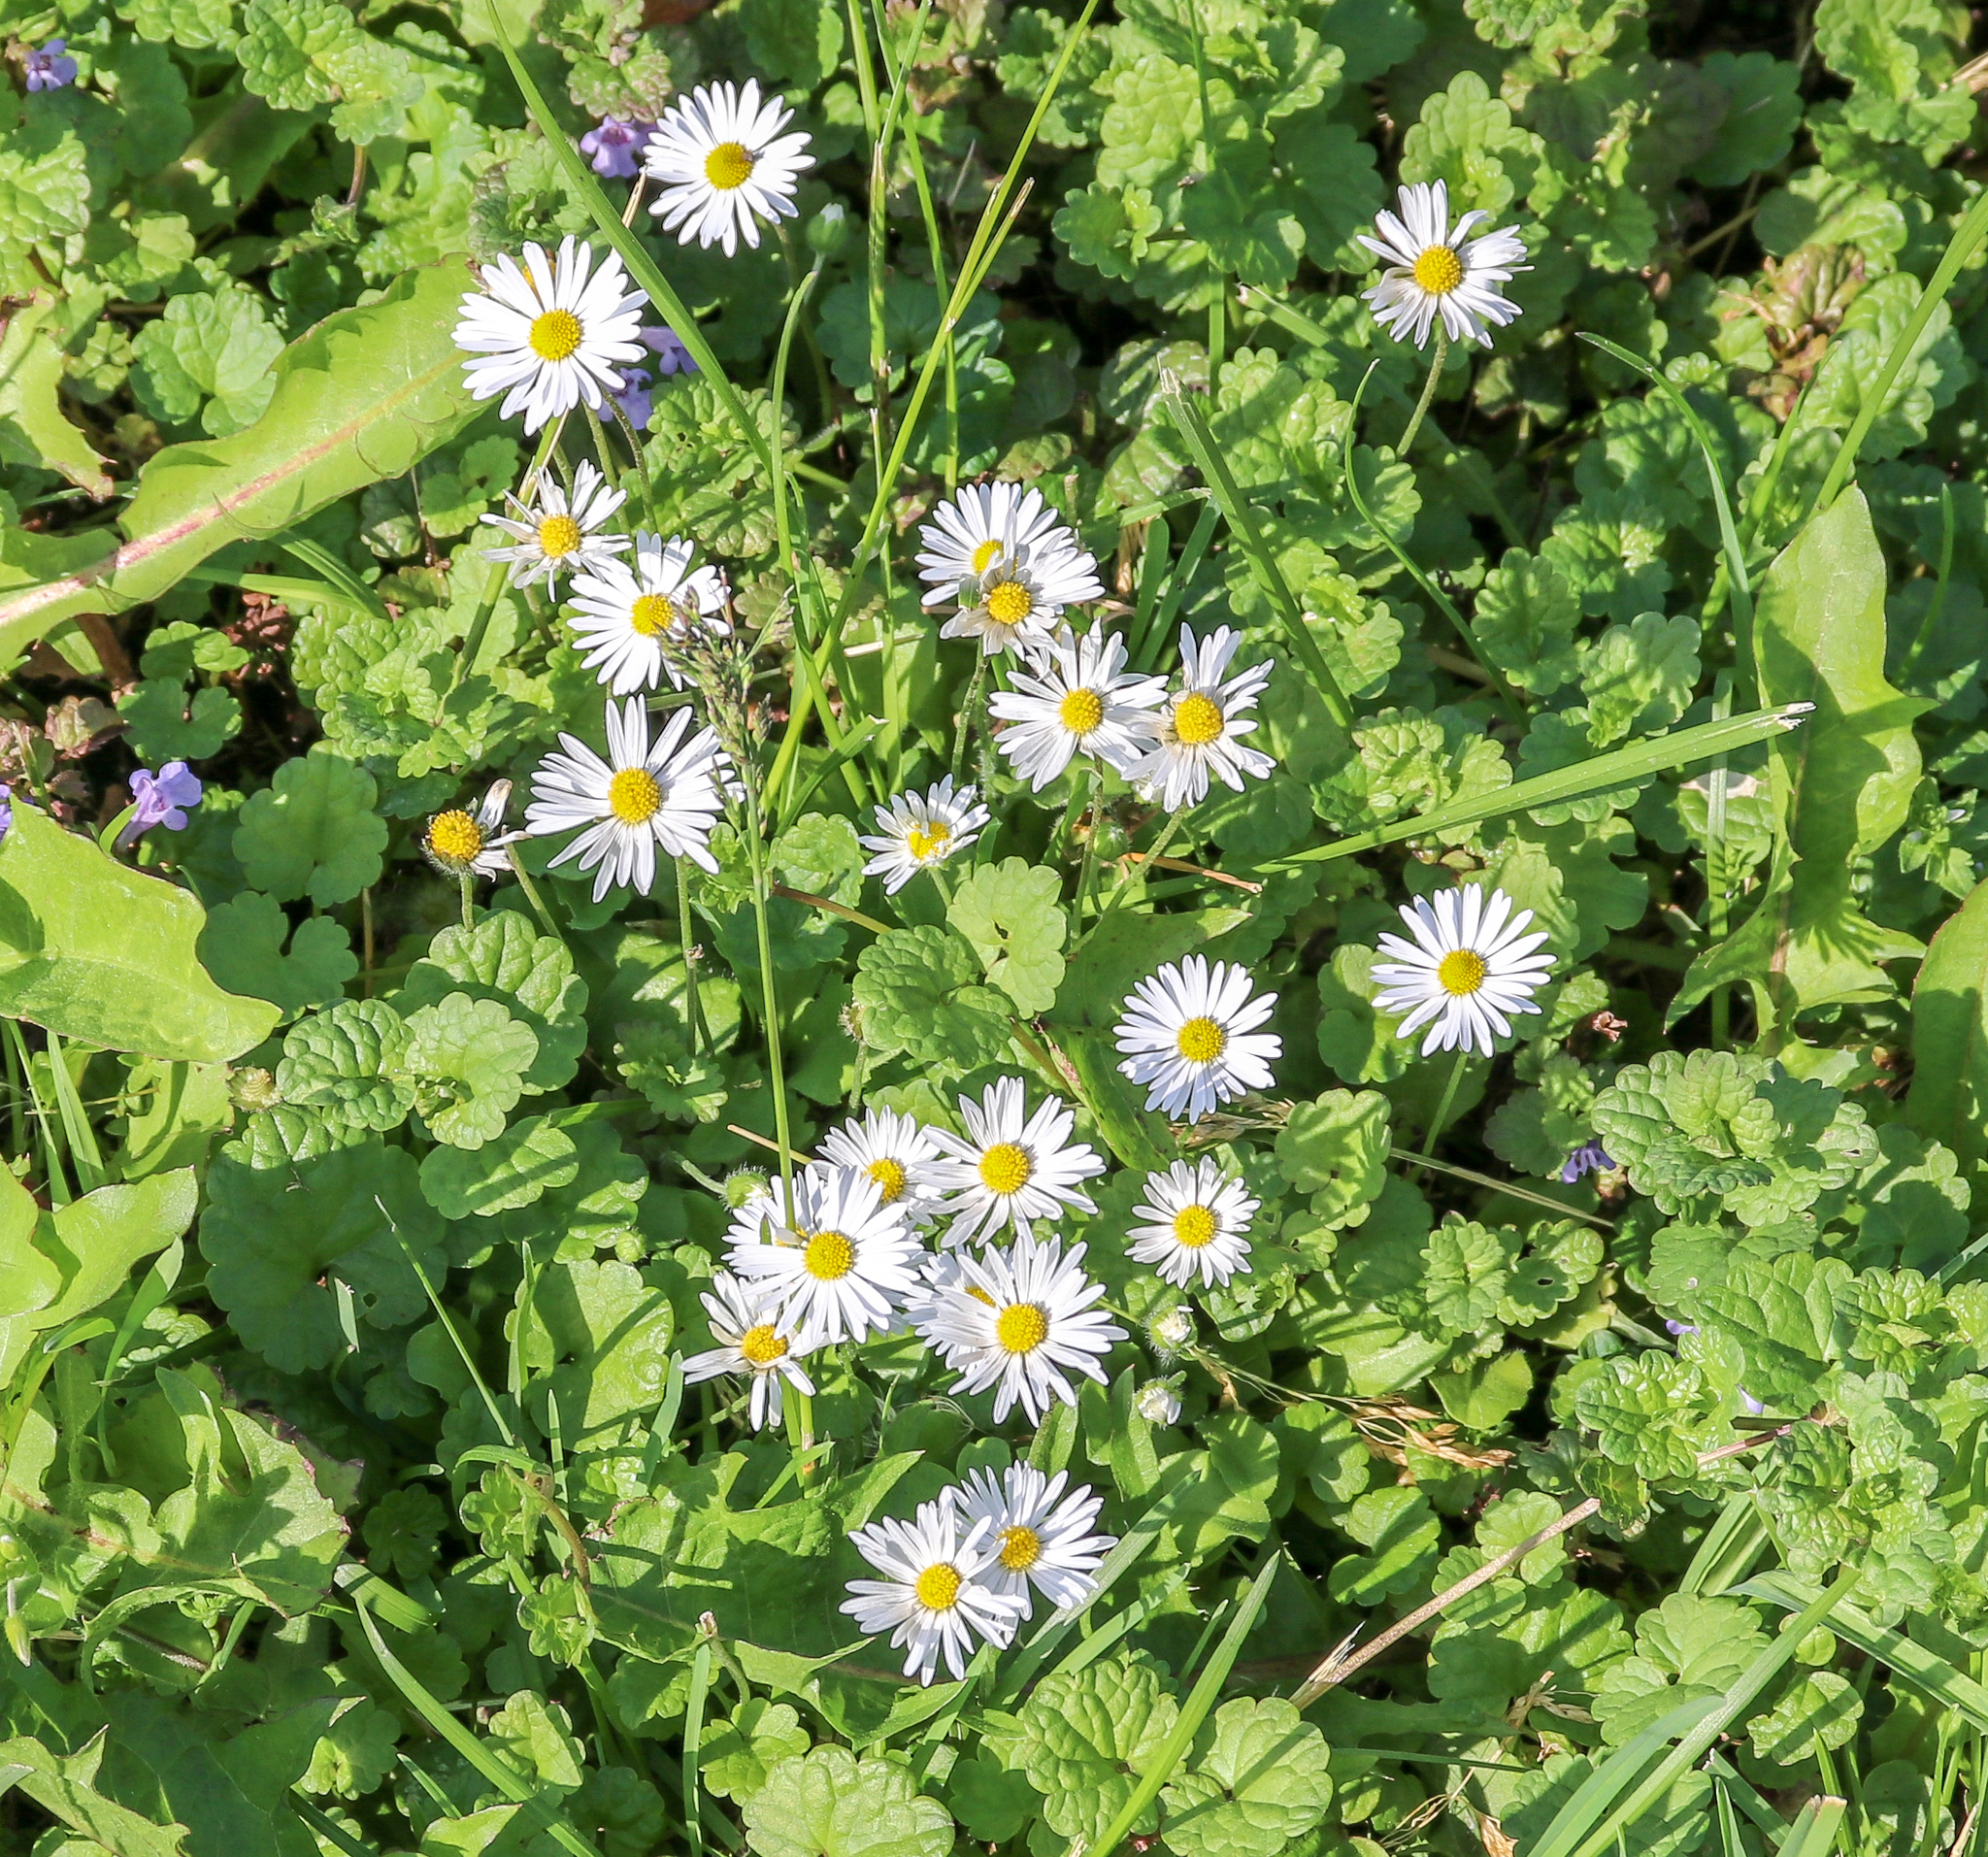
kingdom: Plantae
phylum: Tracheophyta
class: Magnoliopsida
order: Asterales
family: Asteraceae
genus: Bellis
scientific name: Bellis perennis
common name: Lawndaisy
